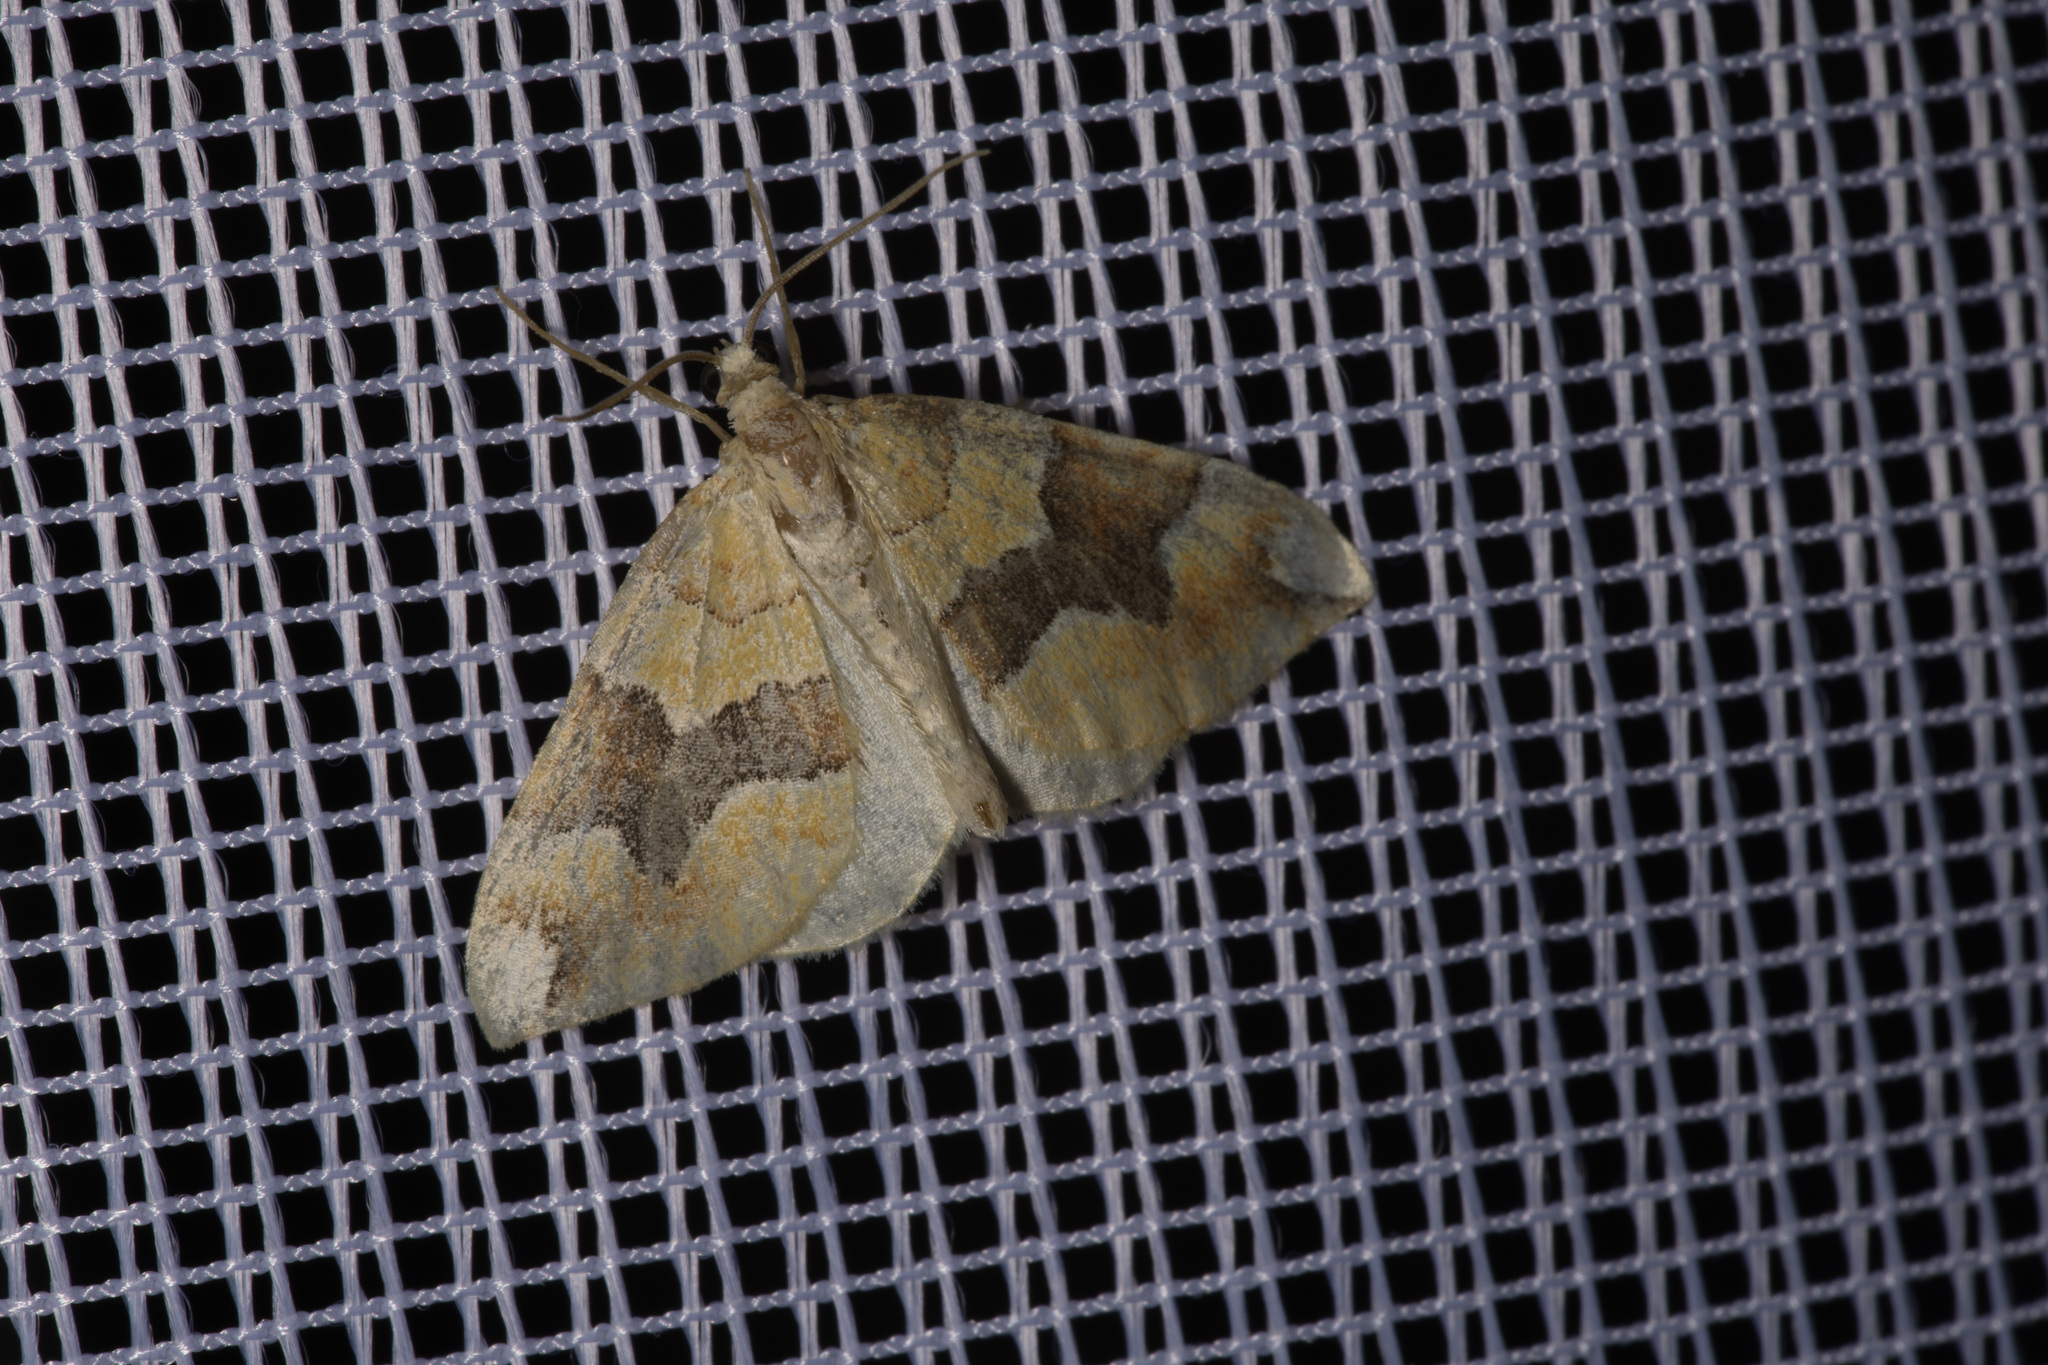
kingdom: Animalia
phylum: Arthropoda
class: Insecta
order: Lepidoptera
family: Geometridae
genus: Cidaria
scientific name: Cidaria fulvata
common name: Barred yellow
